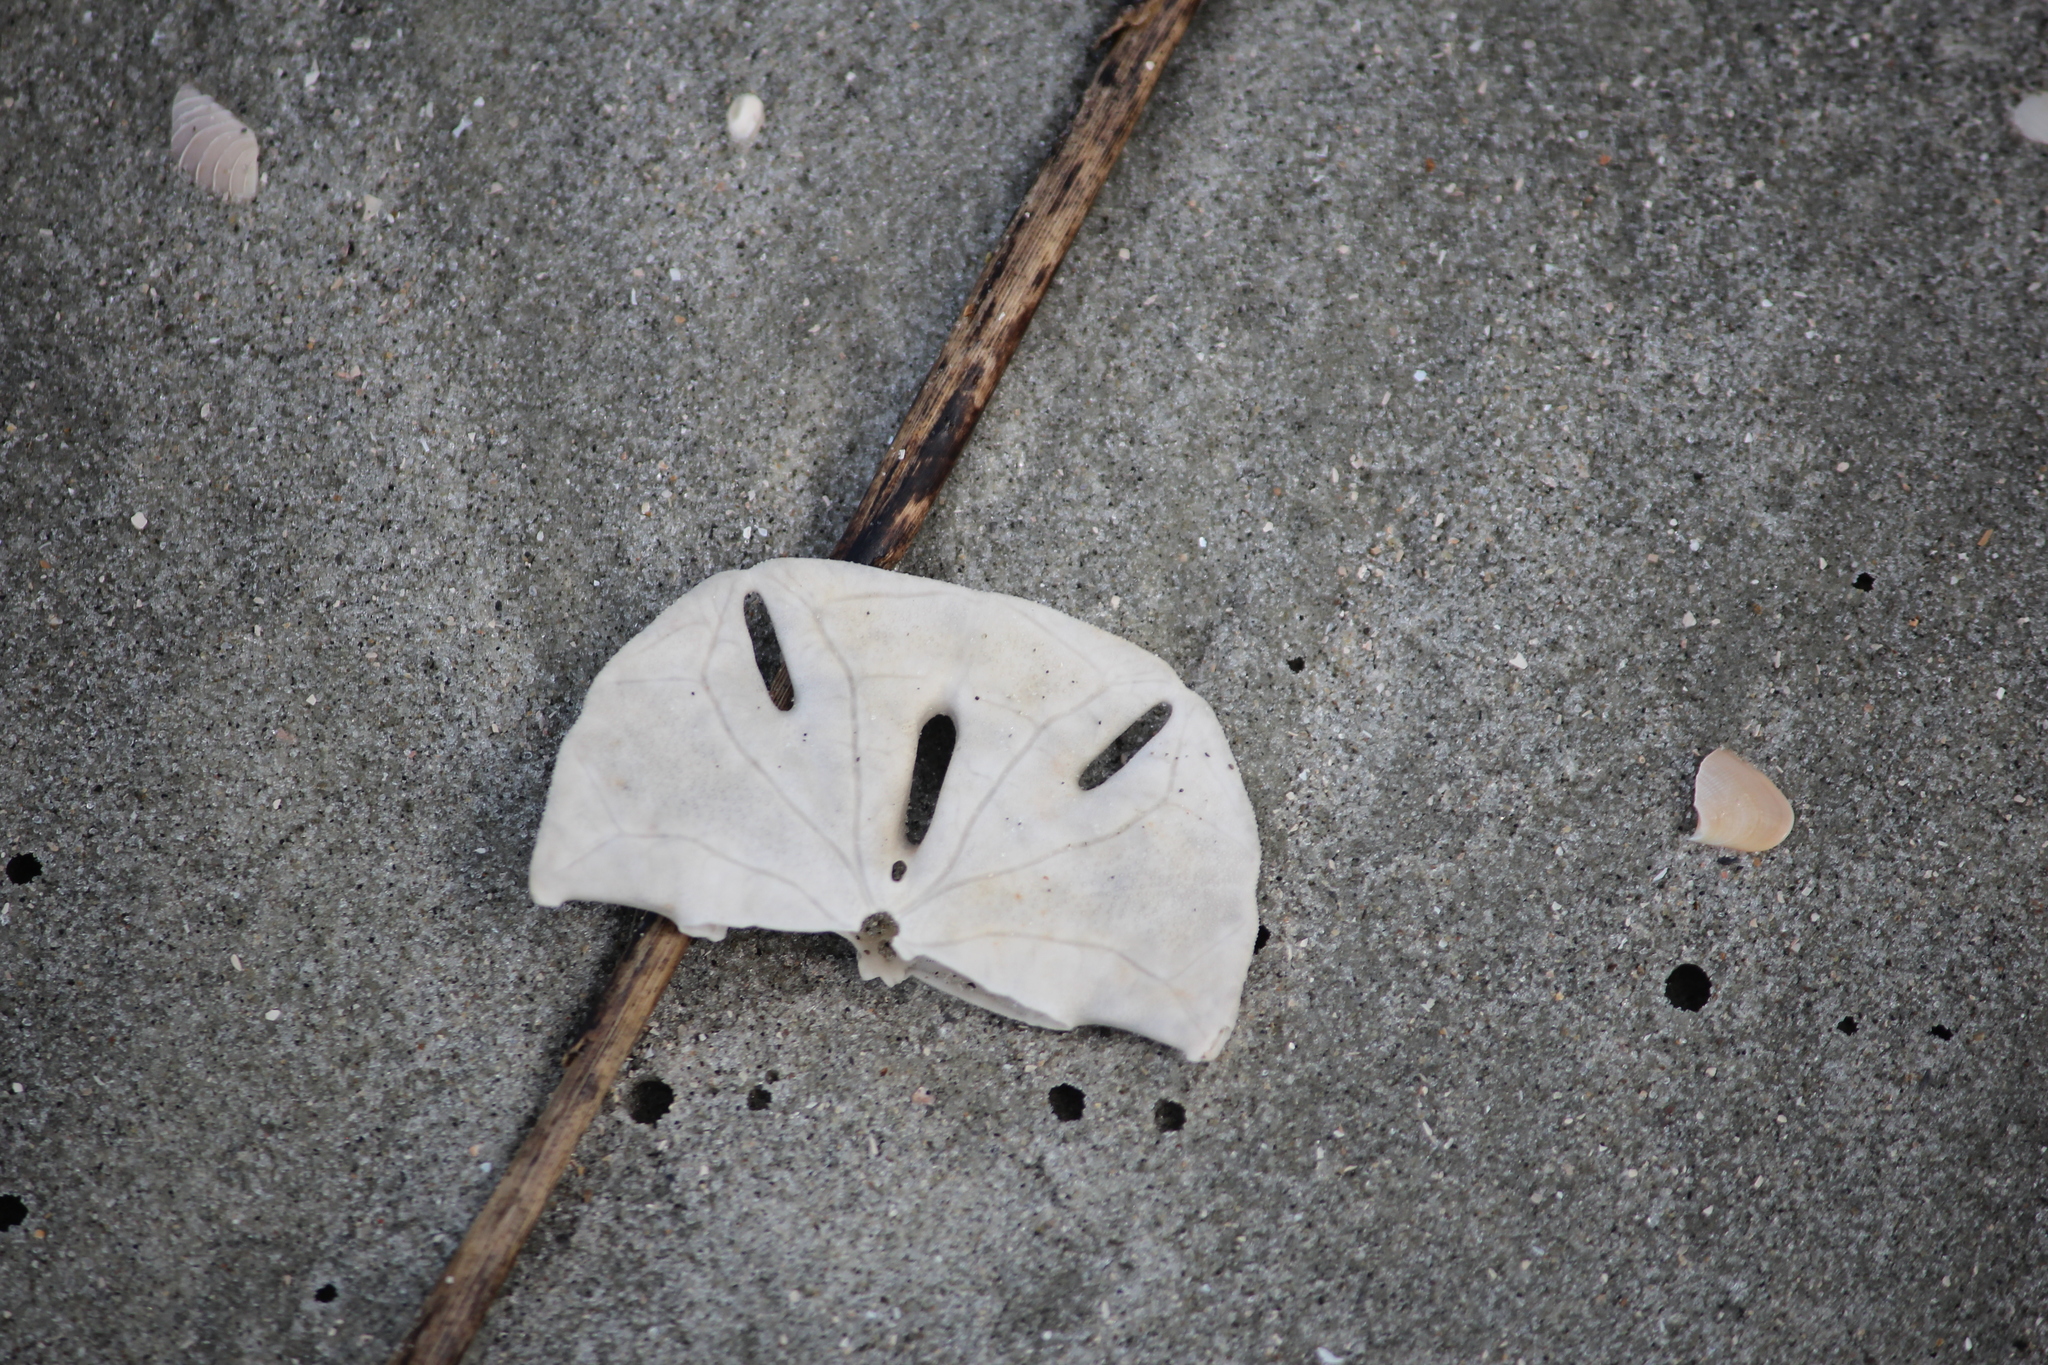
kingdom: Animalia
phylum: Echinodermata
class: Echinoidea
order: Echinolampadacea
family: Mellitidae
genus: Mellita
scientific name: Mellita isometra
